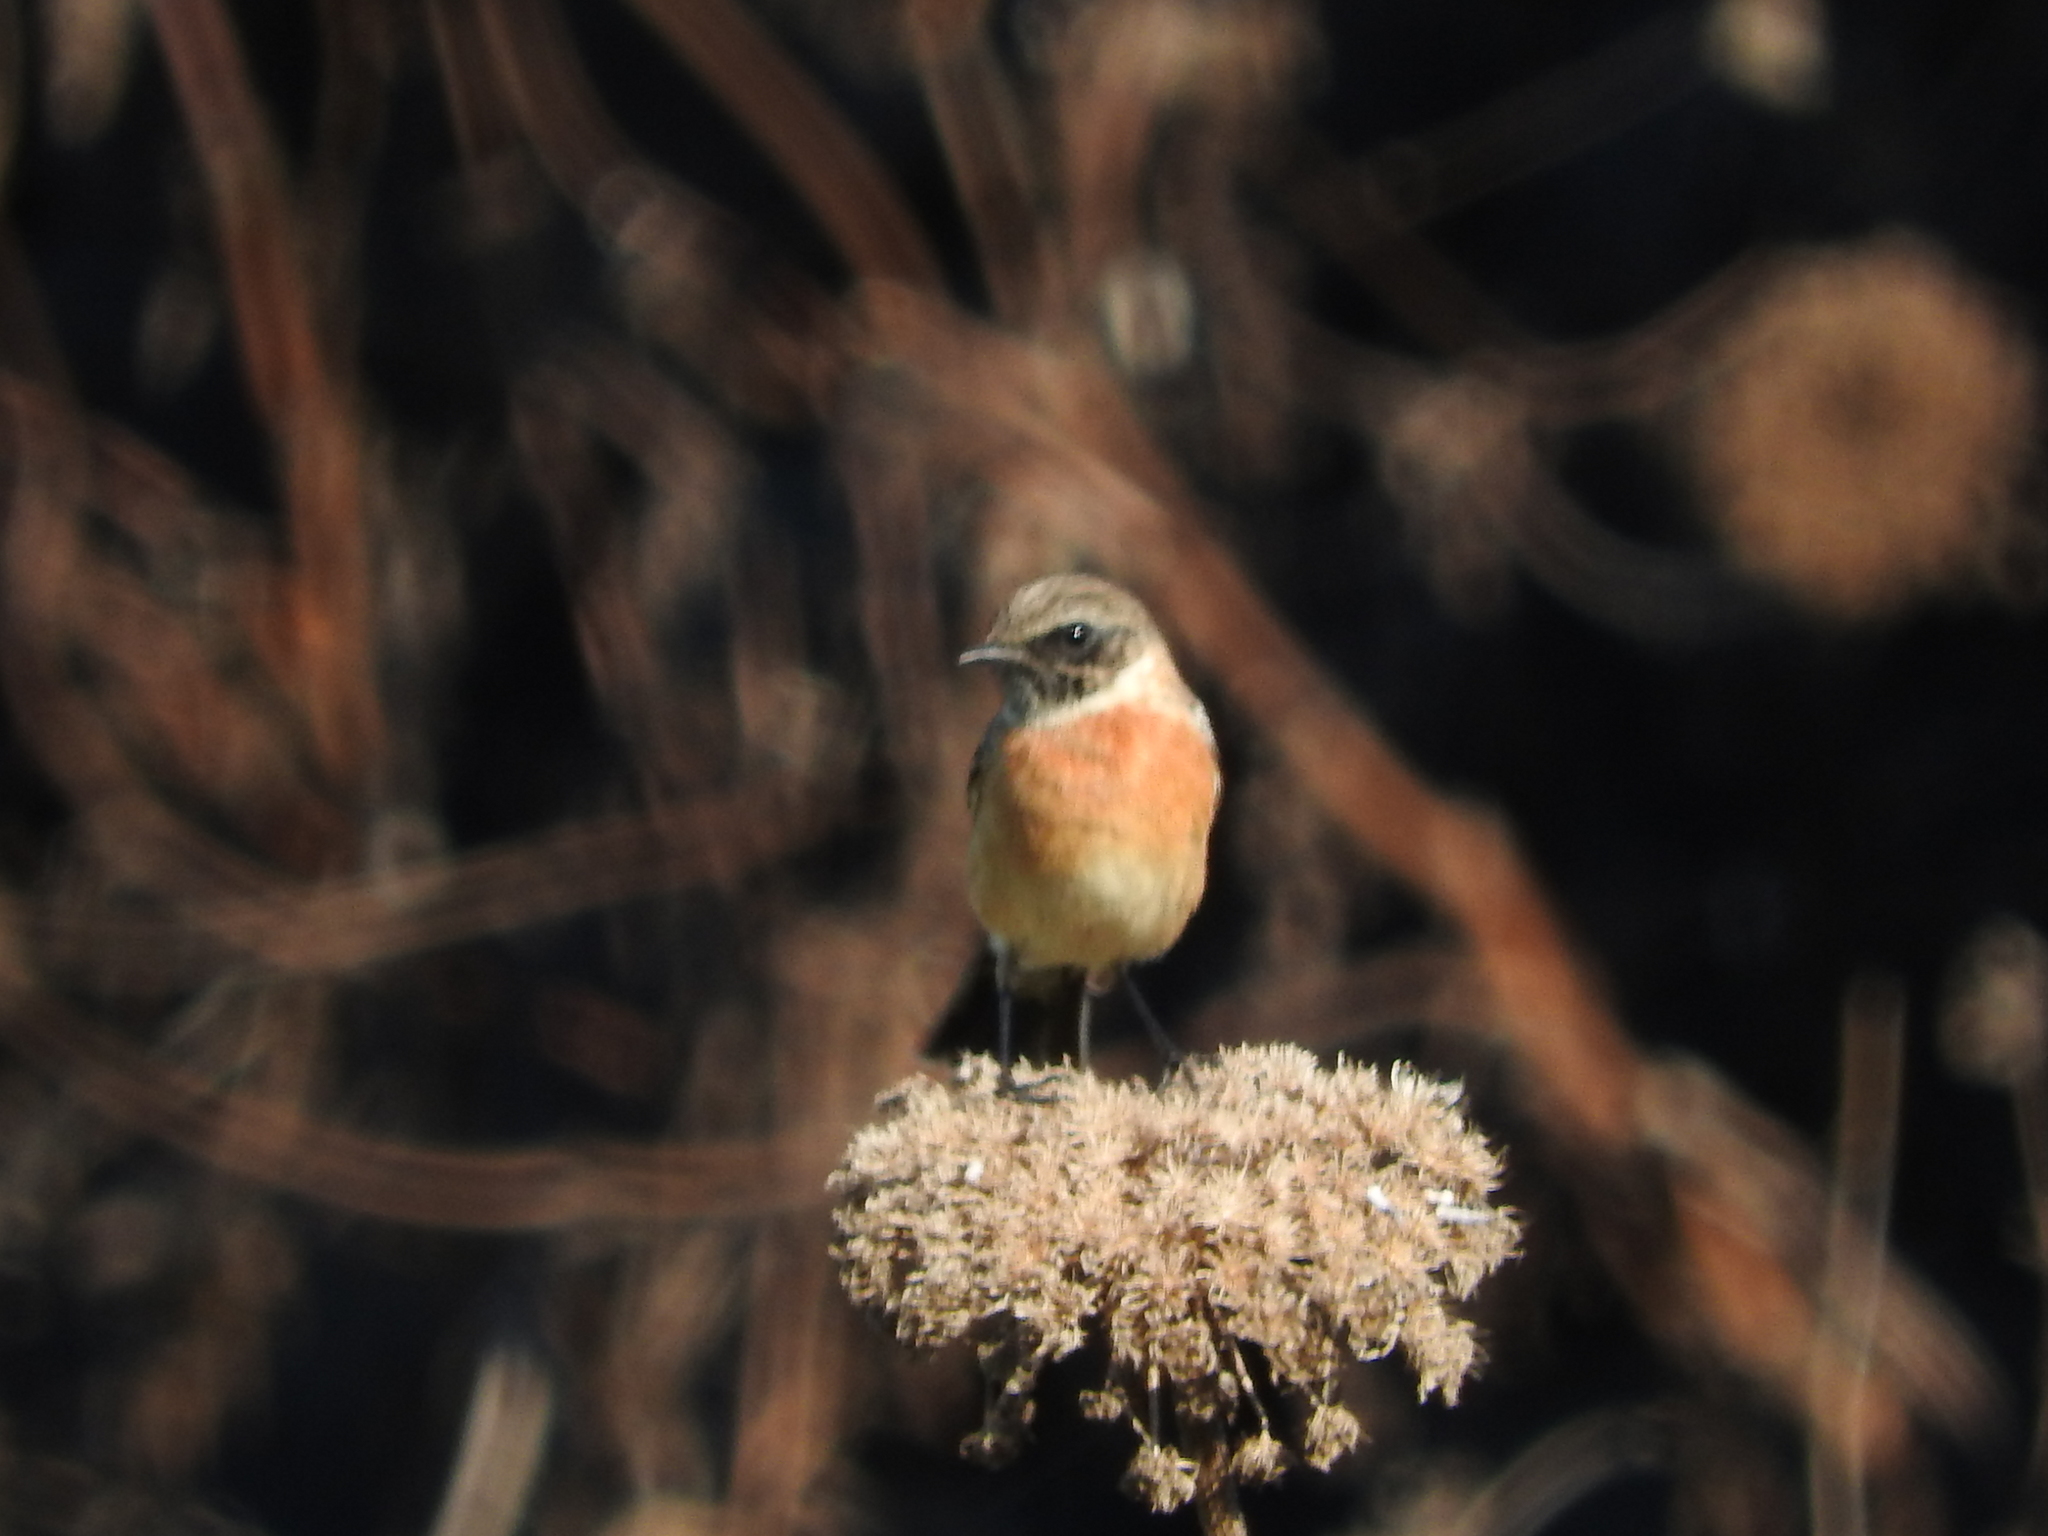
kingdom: Animalia
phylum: Chordata
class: Aves
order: Passeriformes
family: Muscicapidae
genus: Saxicola
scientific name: Saxicola rubicola
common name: European stonechat
